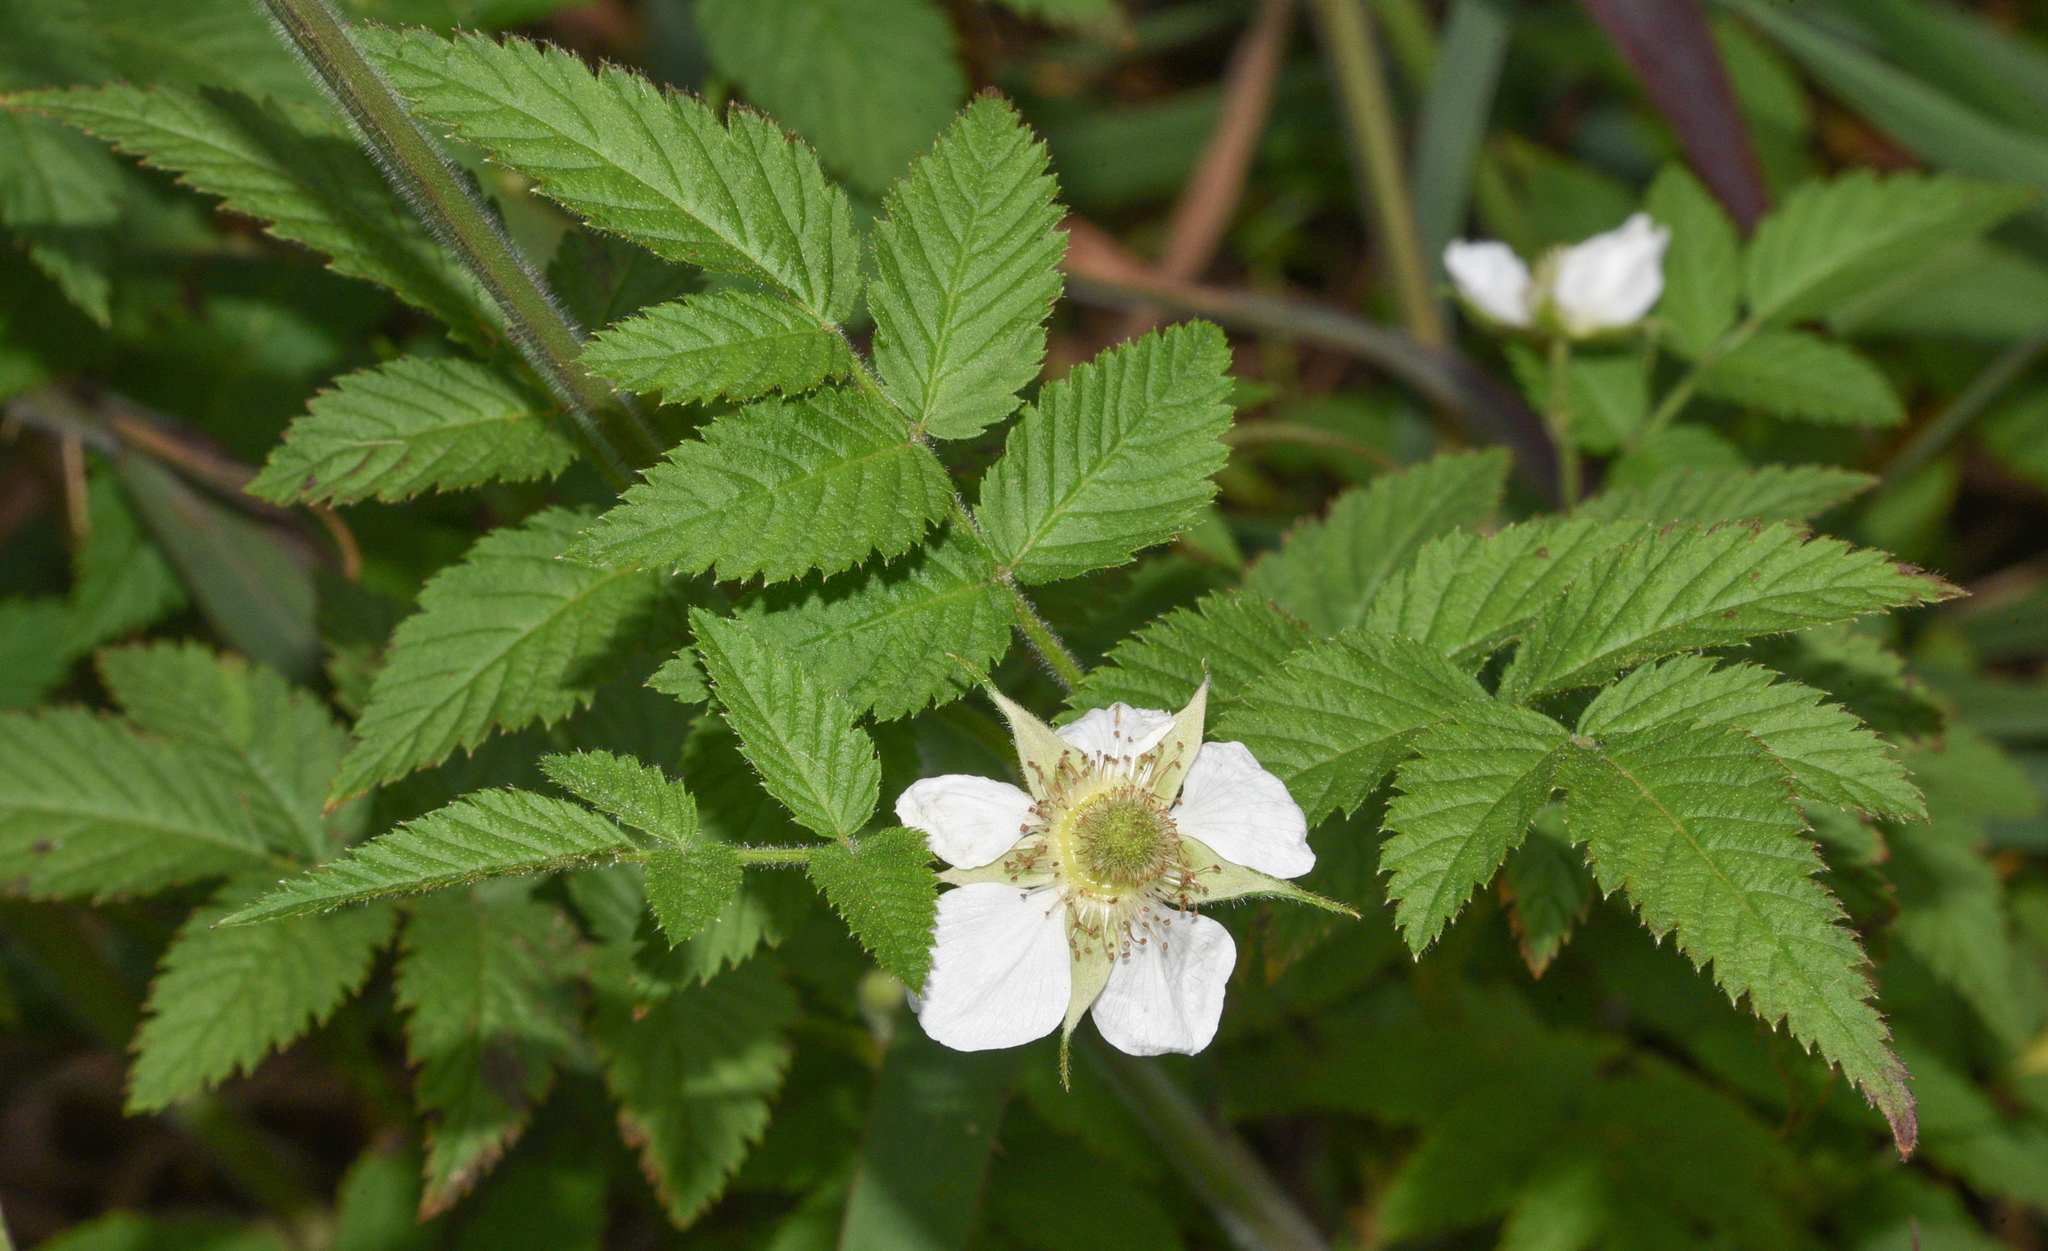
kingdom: Plantae
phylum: Tracheophyta
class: Magnoliopsida
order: Rosales
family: Rosaceae
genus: Rubus
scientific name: Rubus rosifolius
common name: Roseleaf raspberry
